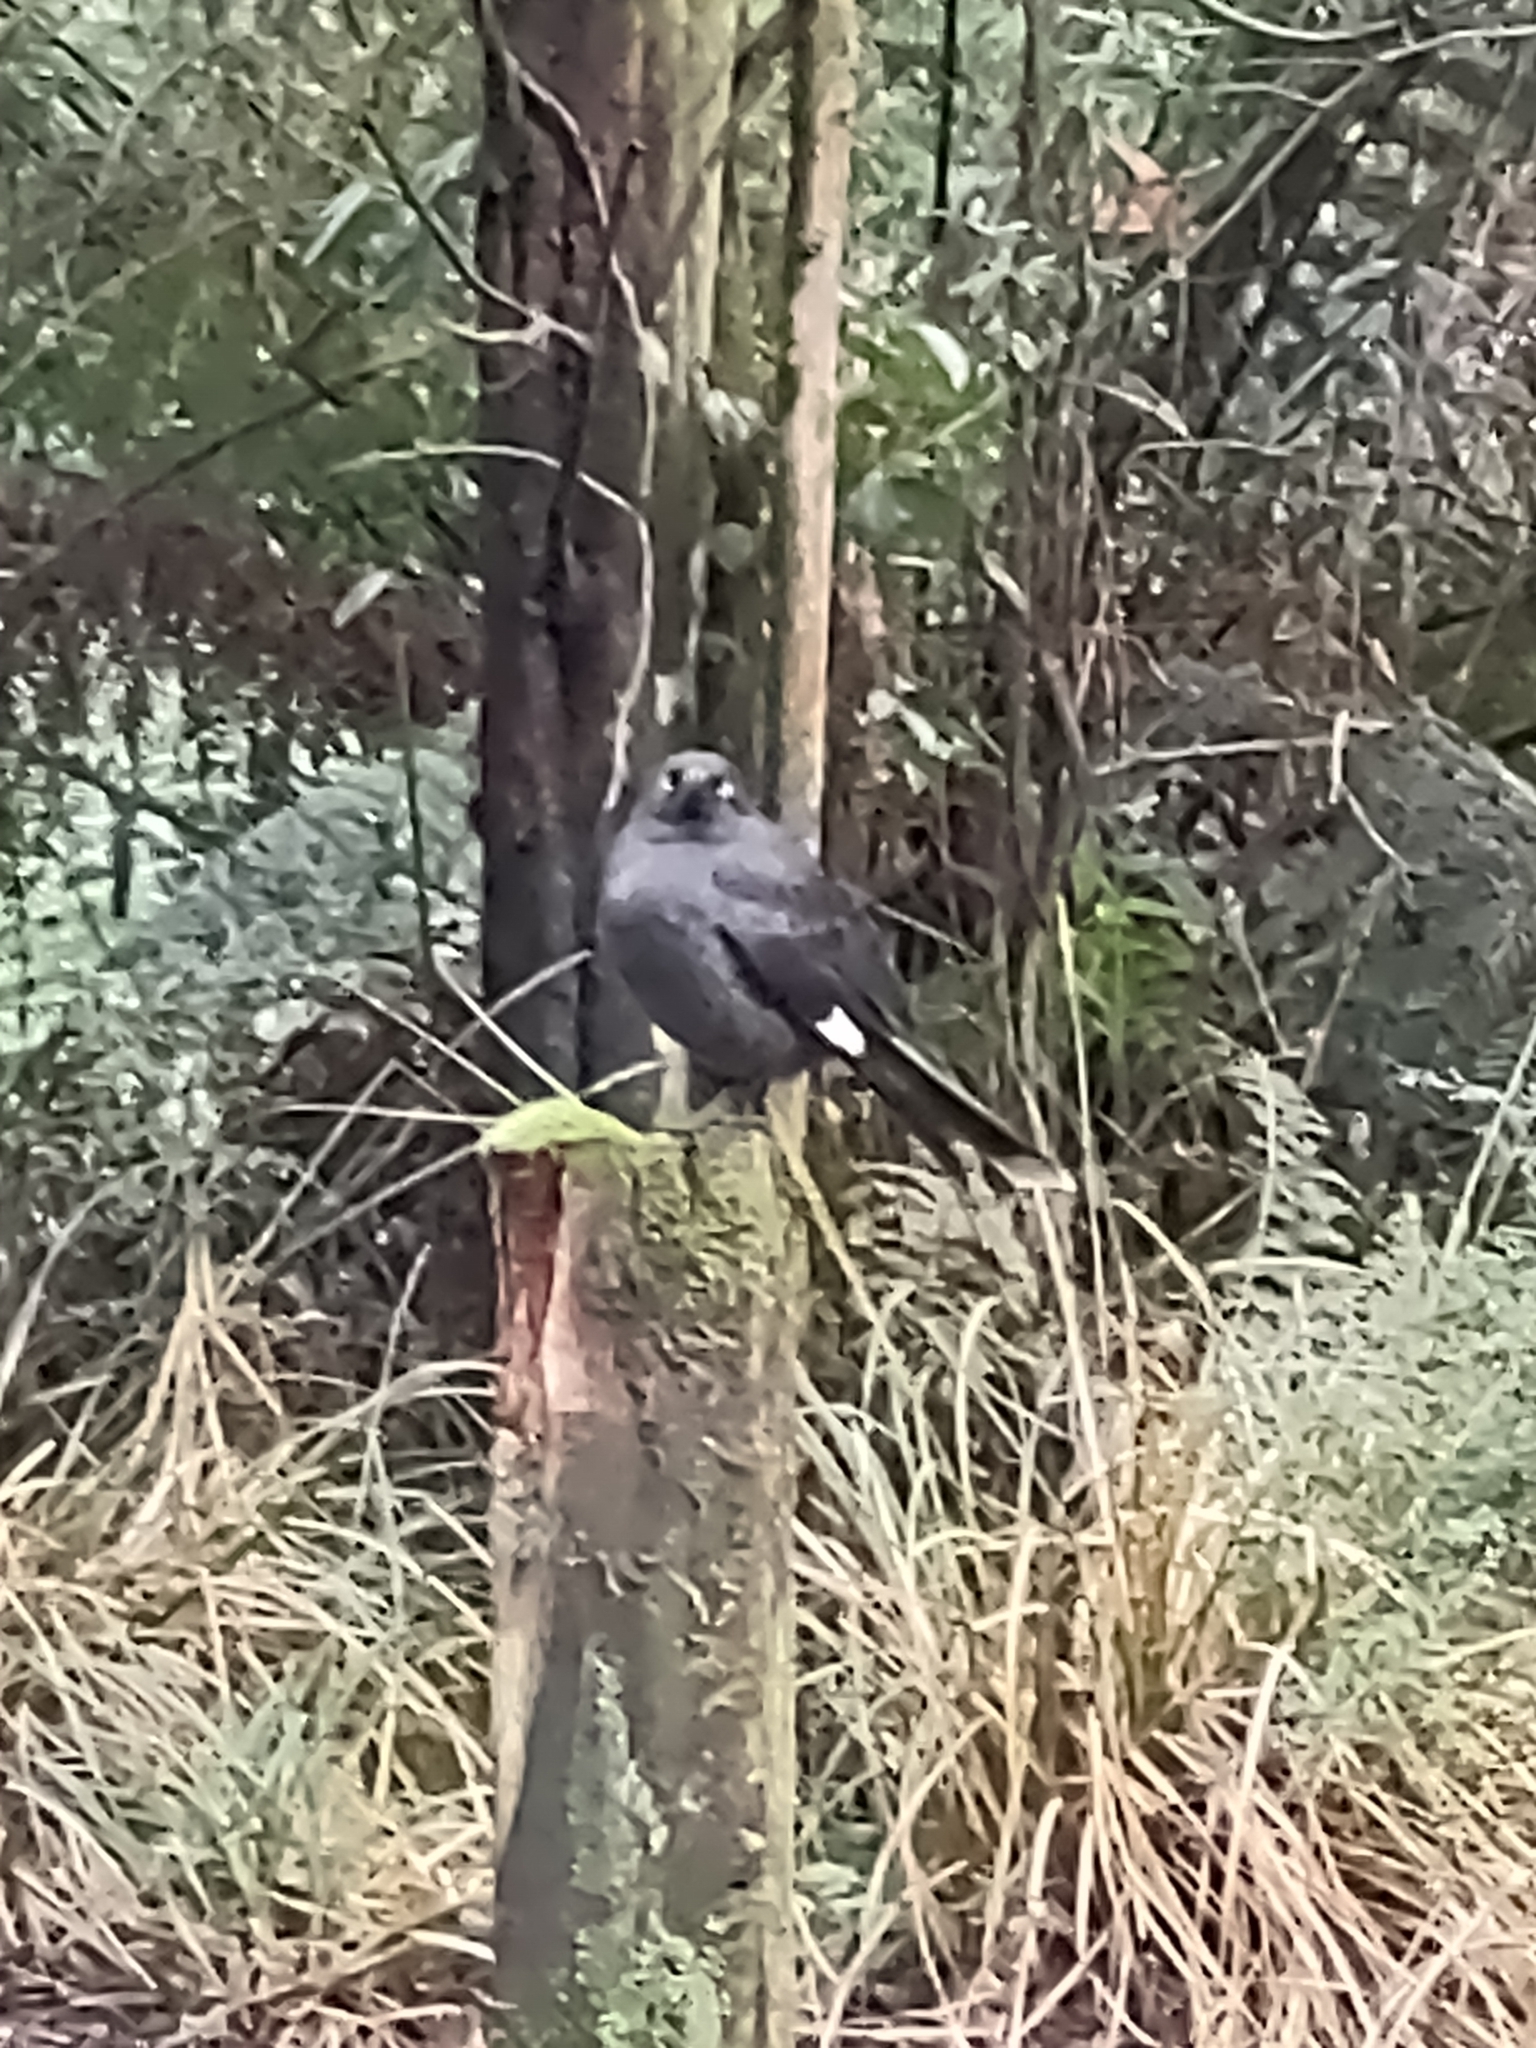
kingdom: Animalia
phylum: Chordata
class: Aves
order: Passeriformes
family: Cracticidae
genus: Strepera
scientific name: Strepera graculina
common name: Pied currawong
